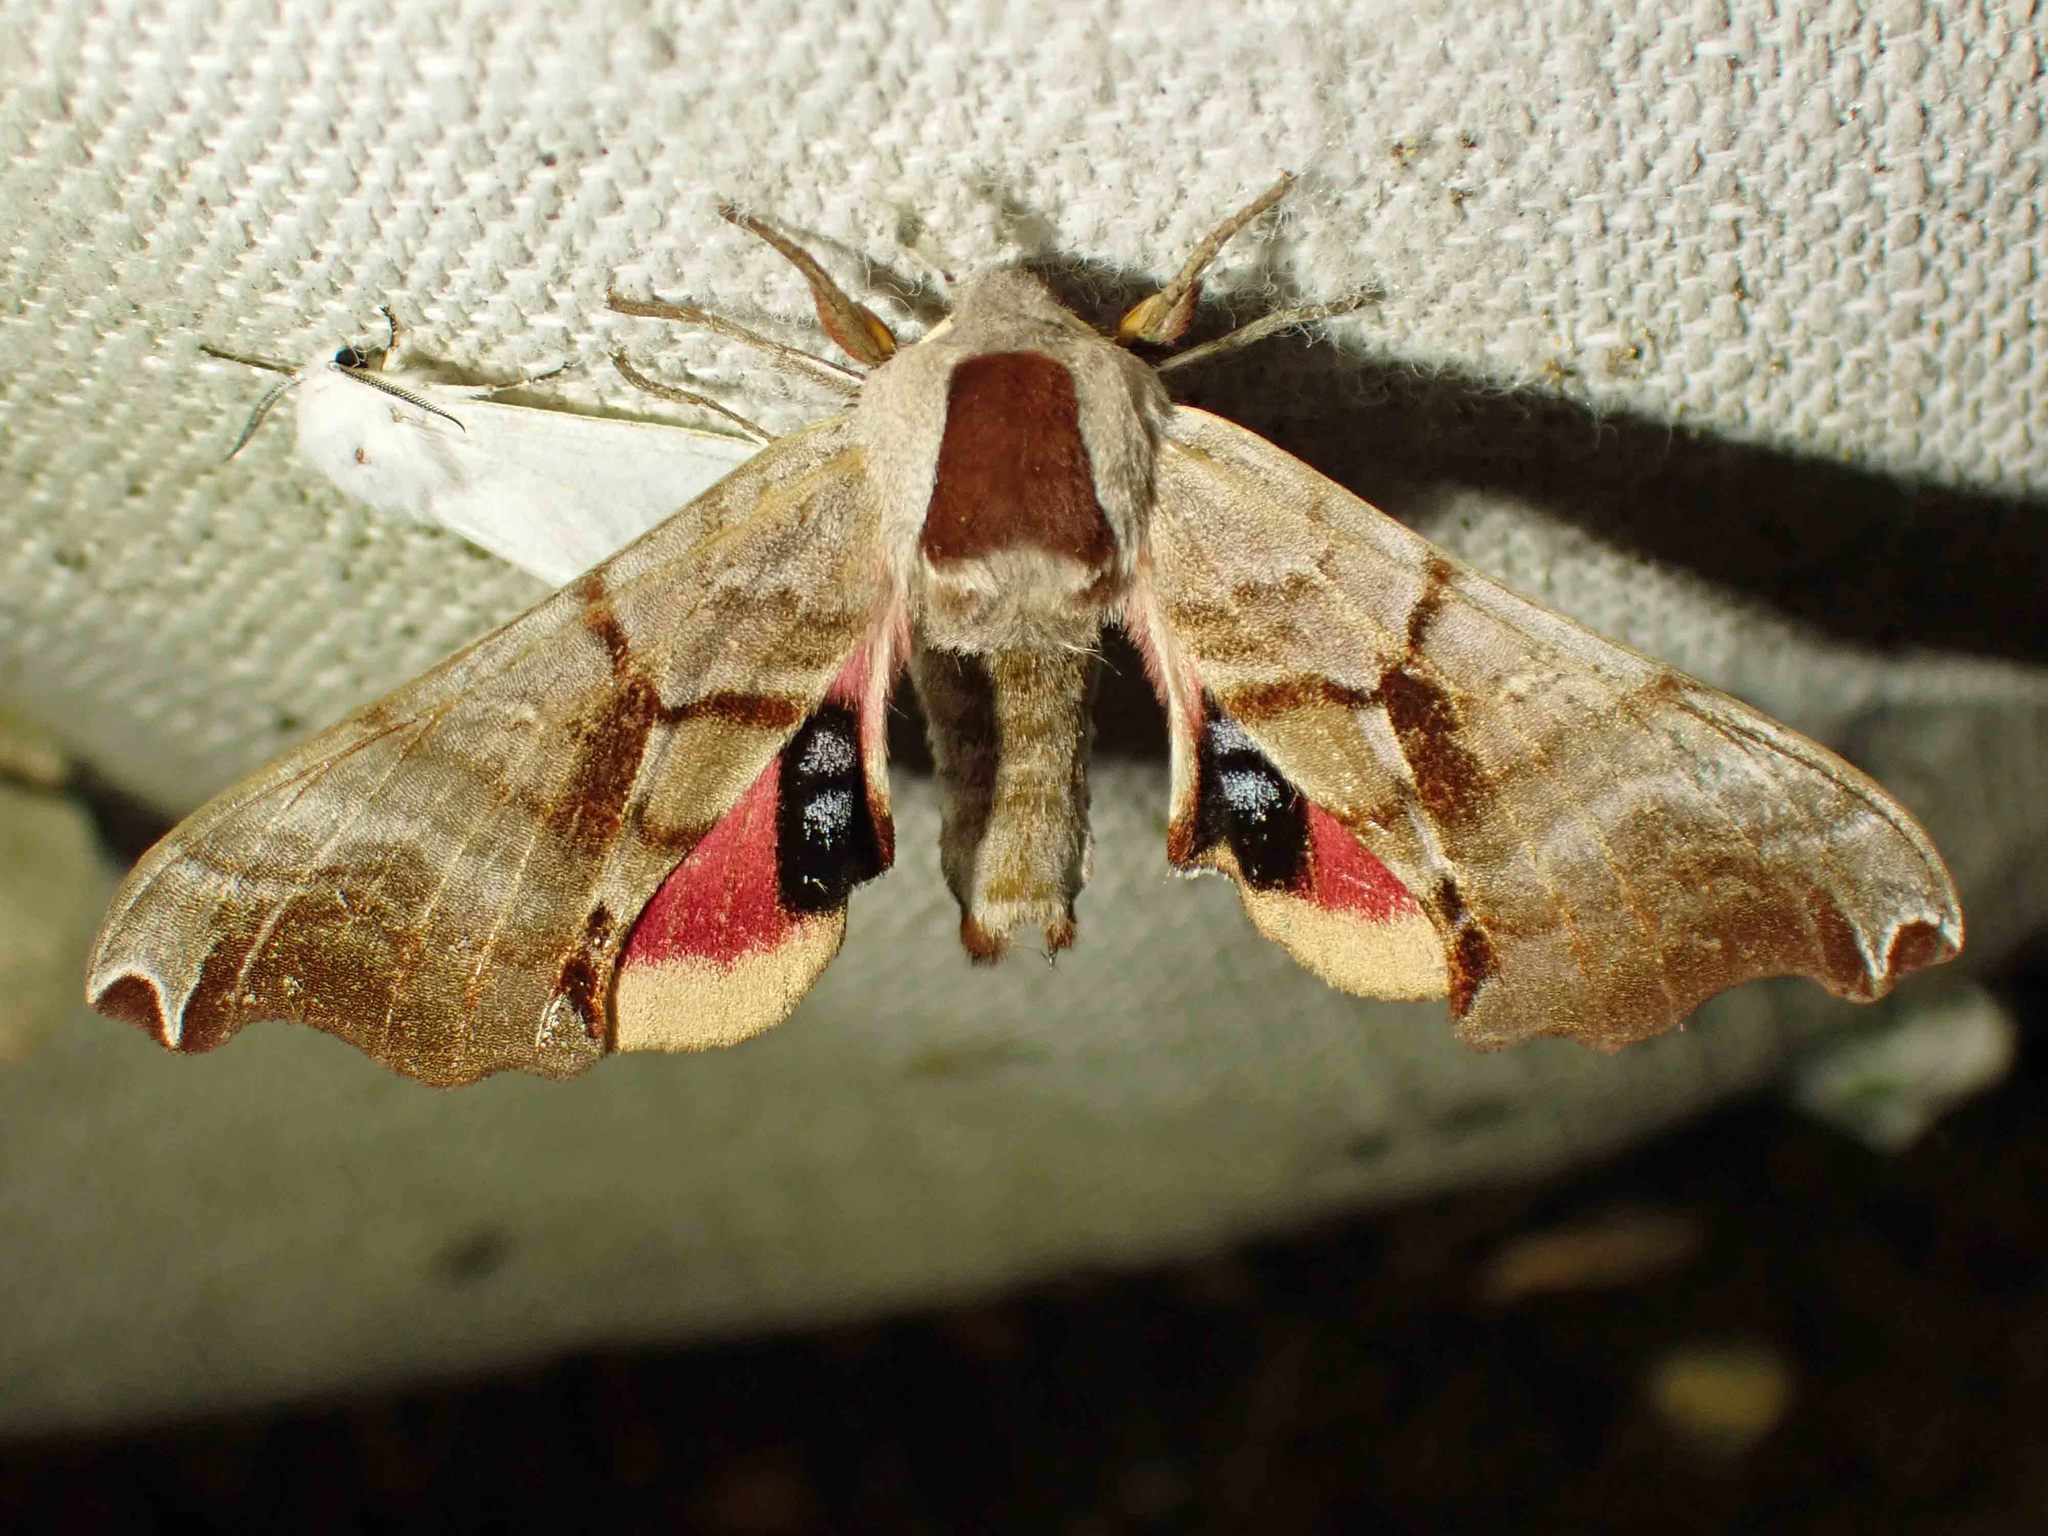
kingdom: Animalia
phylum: Arthropoda
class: Insecta
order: Lepidoptera
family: Sphingidae
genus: Smerinthus
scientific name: Smerinthus jamaicensis
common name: Twin spotted sphinx
